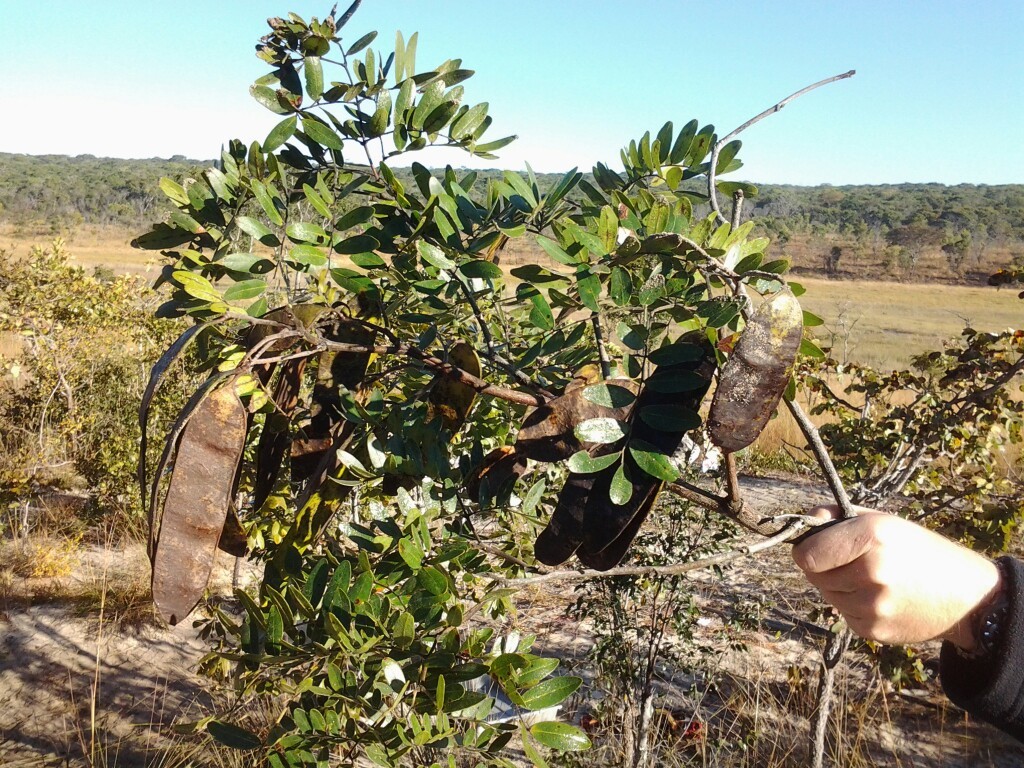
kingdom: Plantae
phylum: Tracheophyta
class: Magnoliopsida
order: Fabales
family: Fabaceae
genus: Erythrophleum
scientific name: Erythrophleum africanum
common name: African blackwood
